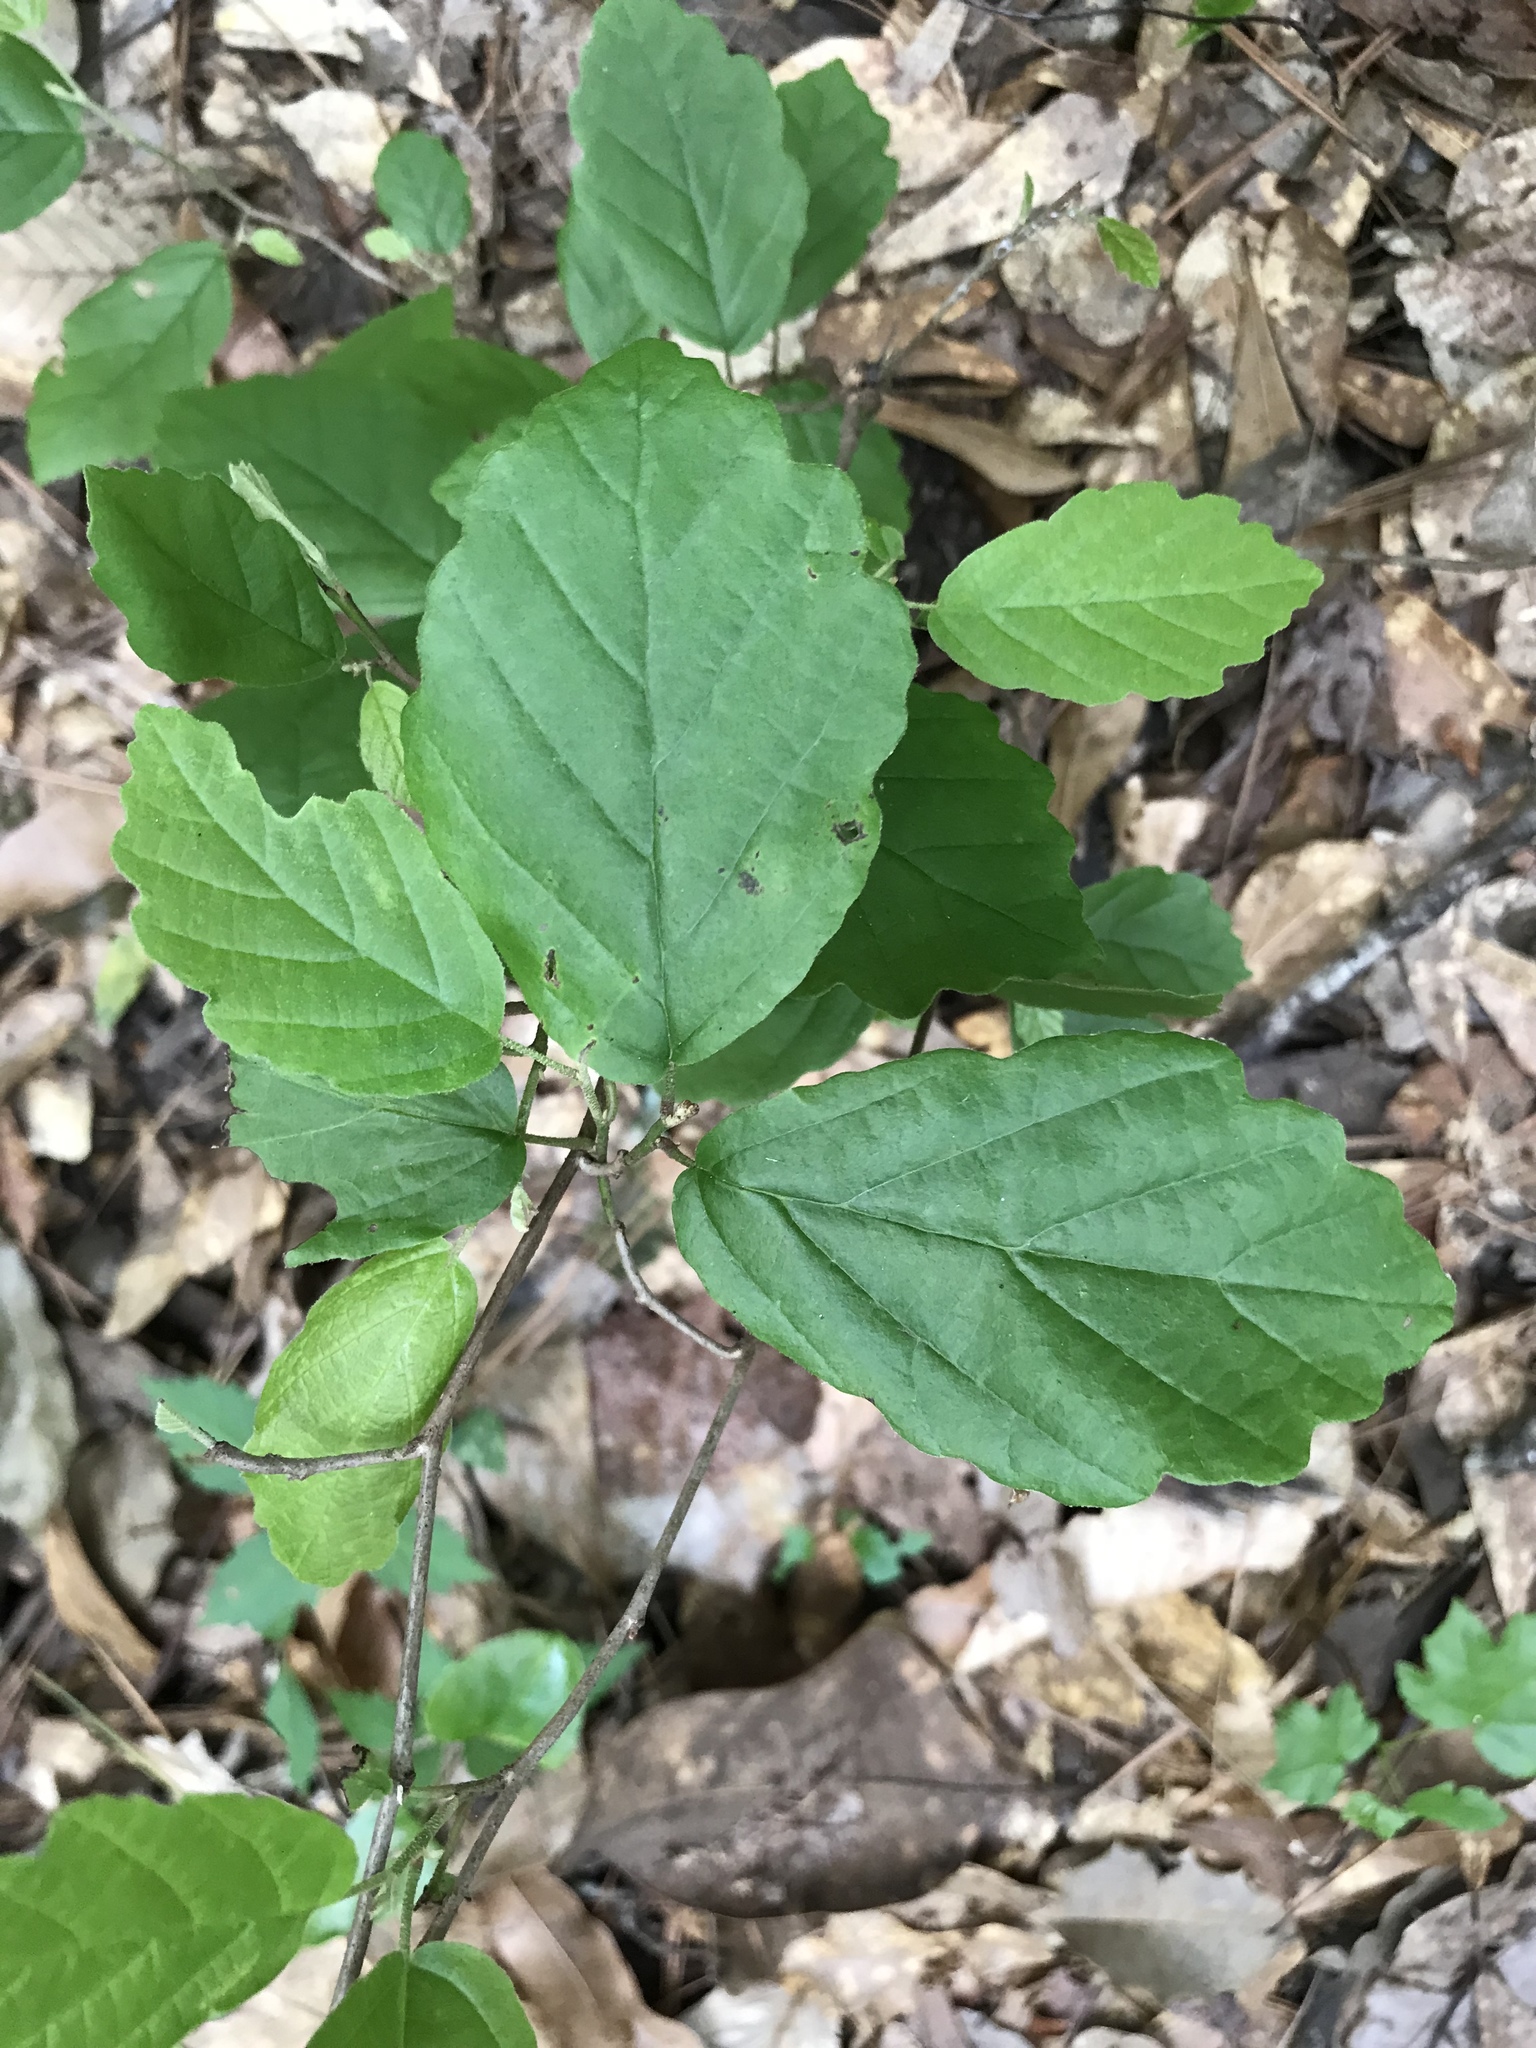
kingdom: Plantae
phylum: Tracheophyta
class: Magnoliopsida
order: Saxifragales
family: Hamamelidaceae
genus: Hamamelis
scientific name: Hamamelis virginiana
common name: Witch-hazel
